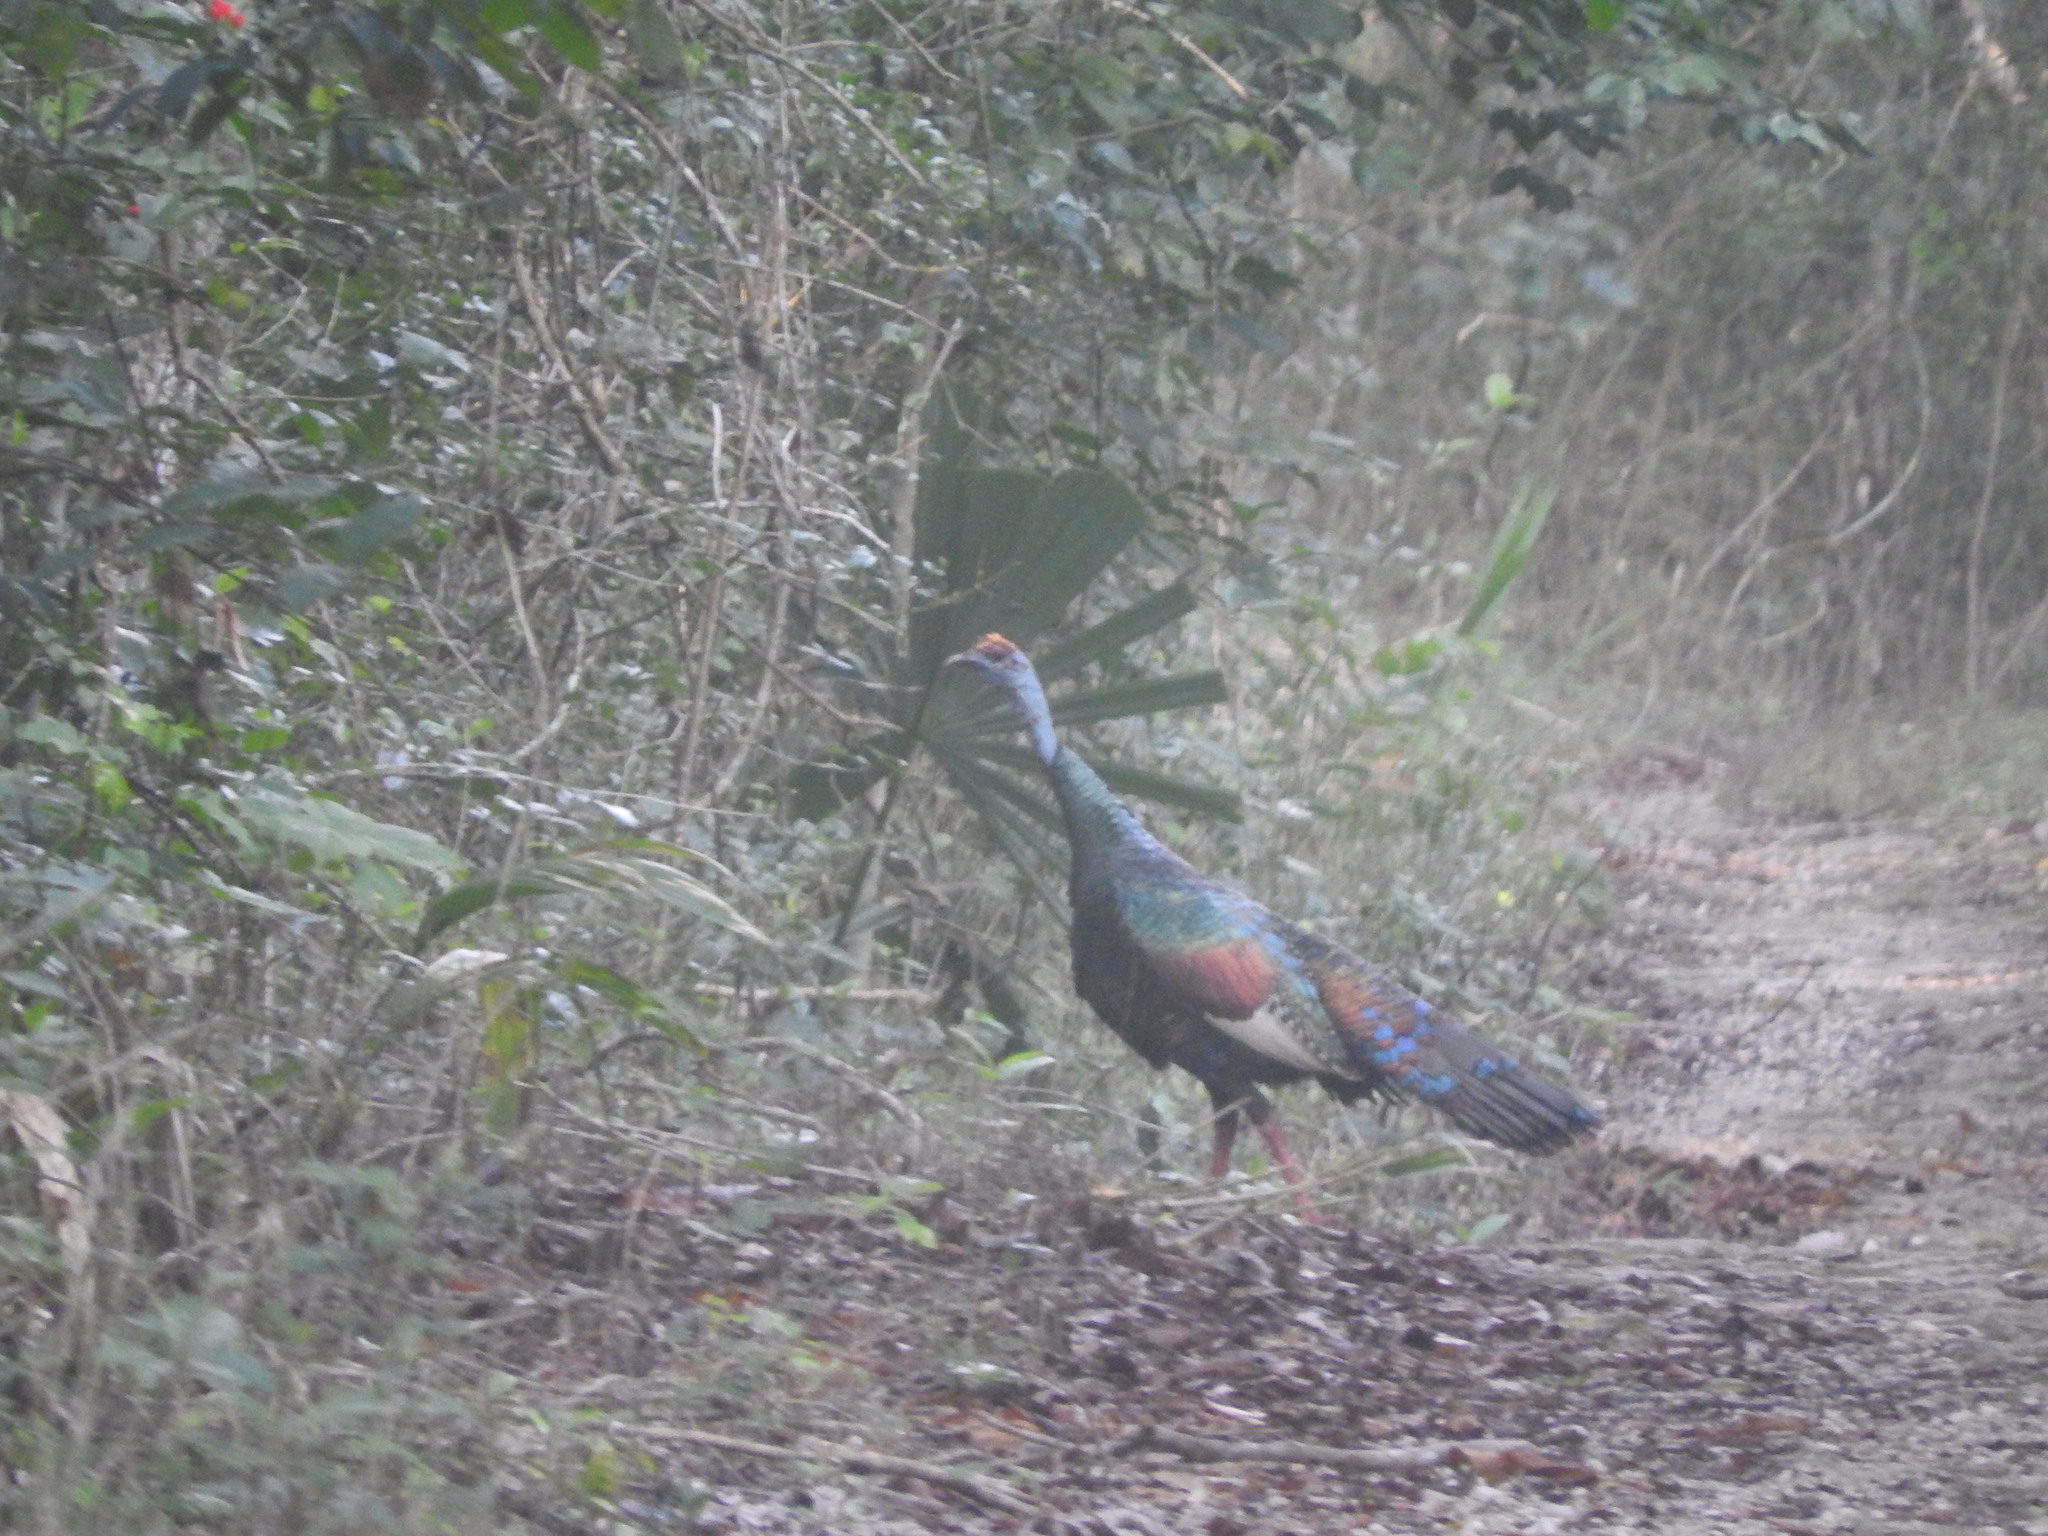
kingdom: Animalia
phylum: Chordata
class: Aves
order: Galliformes
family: Phasianidae
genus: Meleagris
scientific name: Meleagris ocellata
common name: Ocellated turkey
